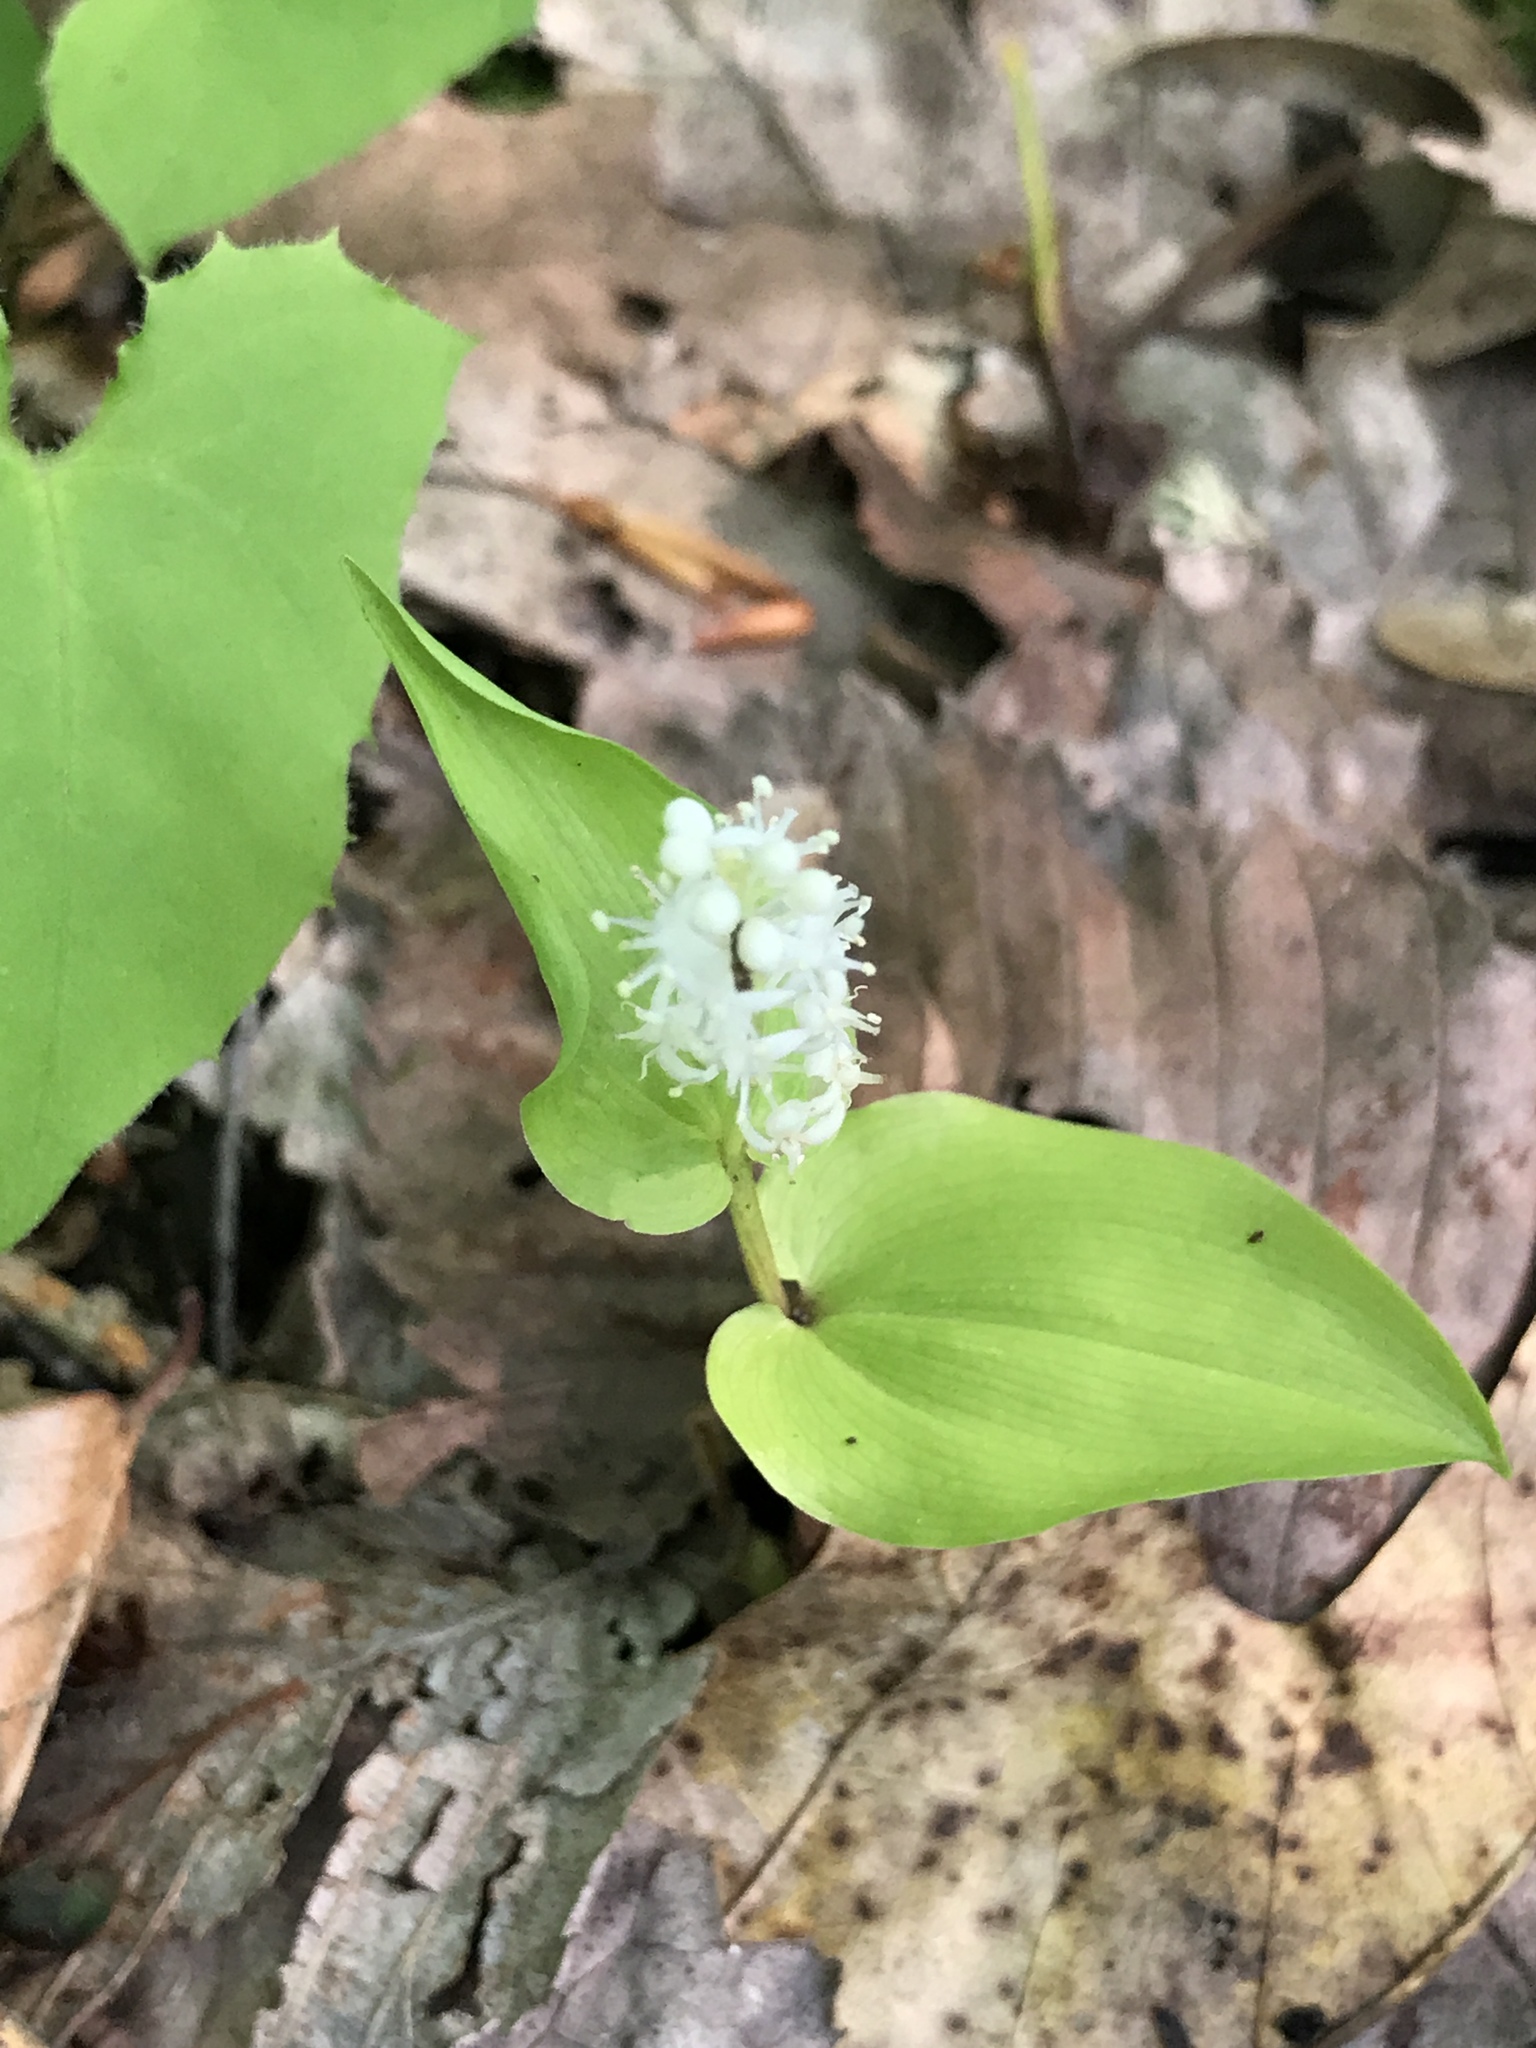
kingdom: Plantae
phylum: Tracheophyta
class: Liliopsida
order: Asparagales
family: Asparagaceae
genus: Maianthemum
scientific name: Maianthemum canadense
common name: False lily-of-the-valley
